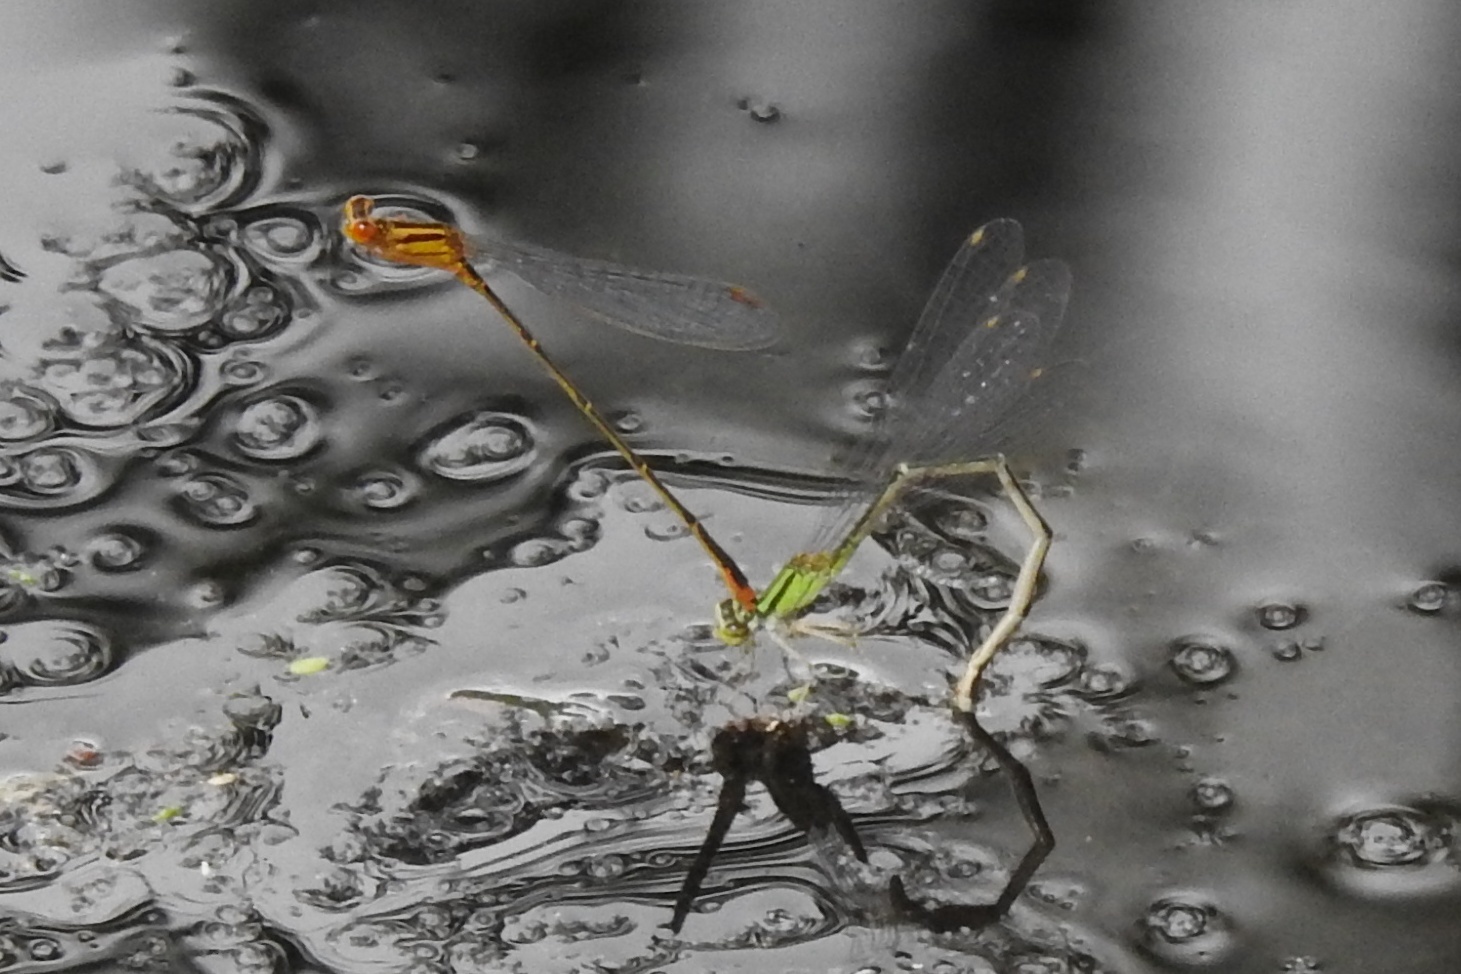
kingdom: Animalia
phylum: Arthropoda
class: Insecta
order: Odonata
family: Coenagrionidae
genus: Enallagma
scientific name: Enallagma signatum
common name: Orange bluet
